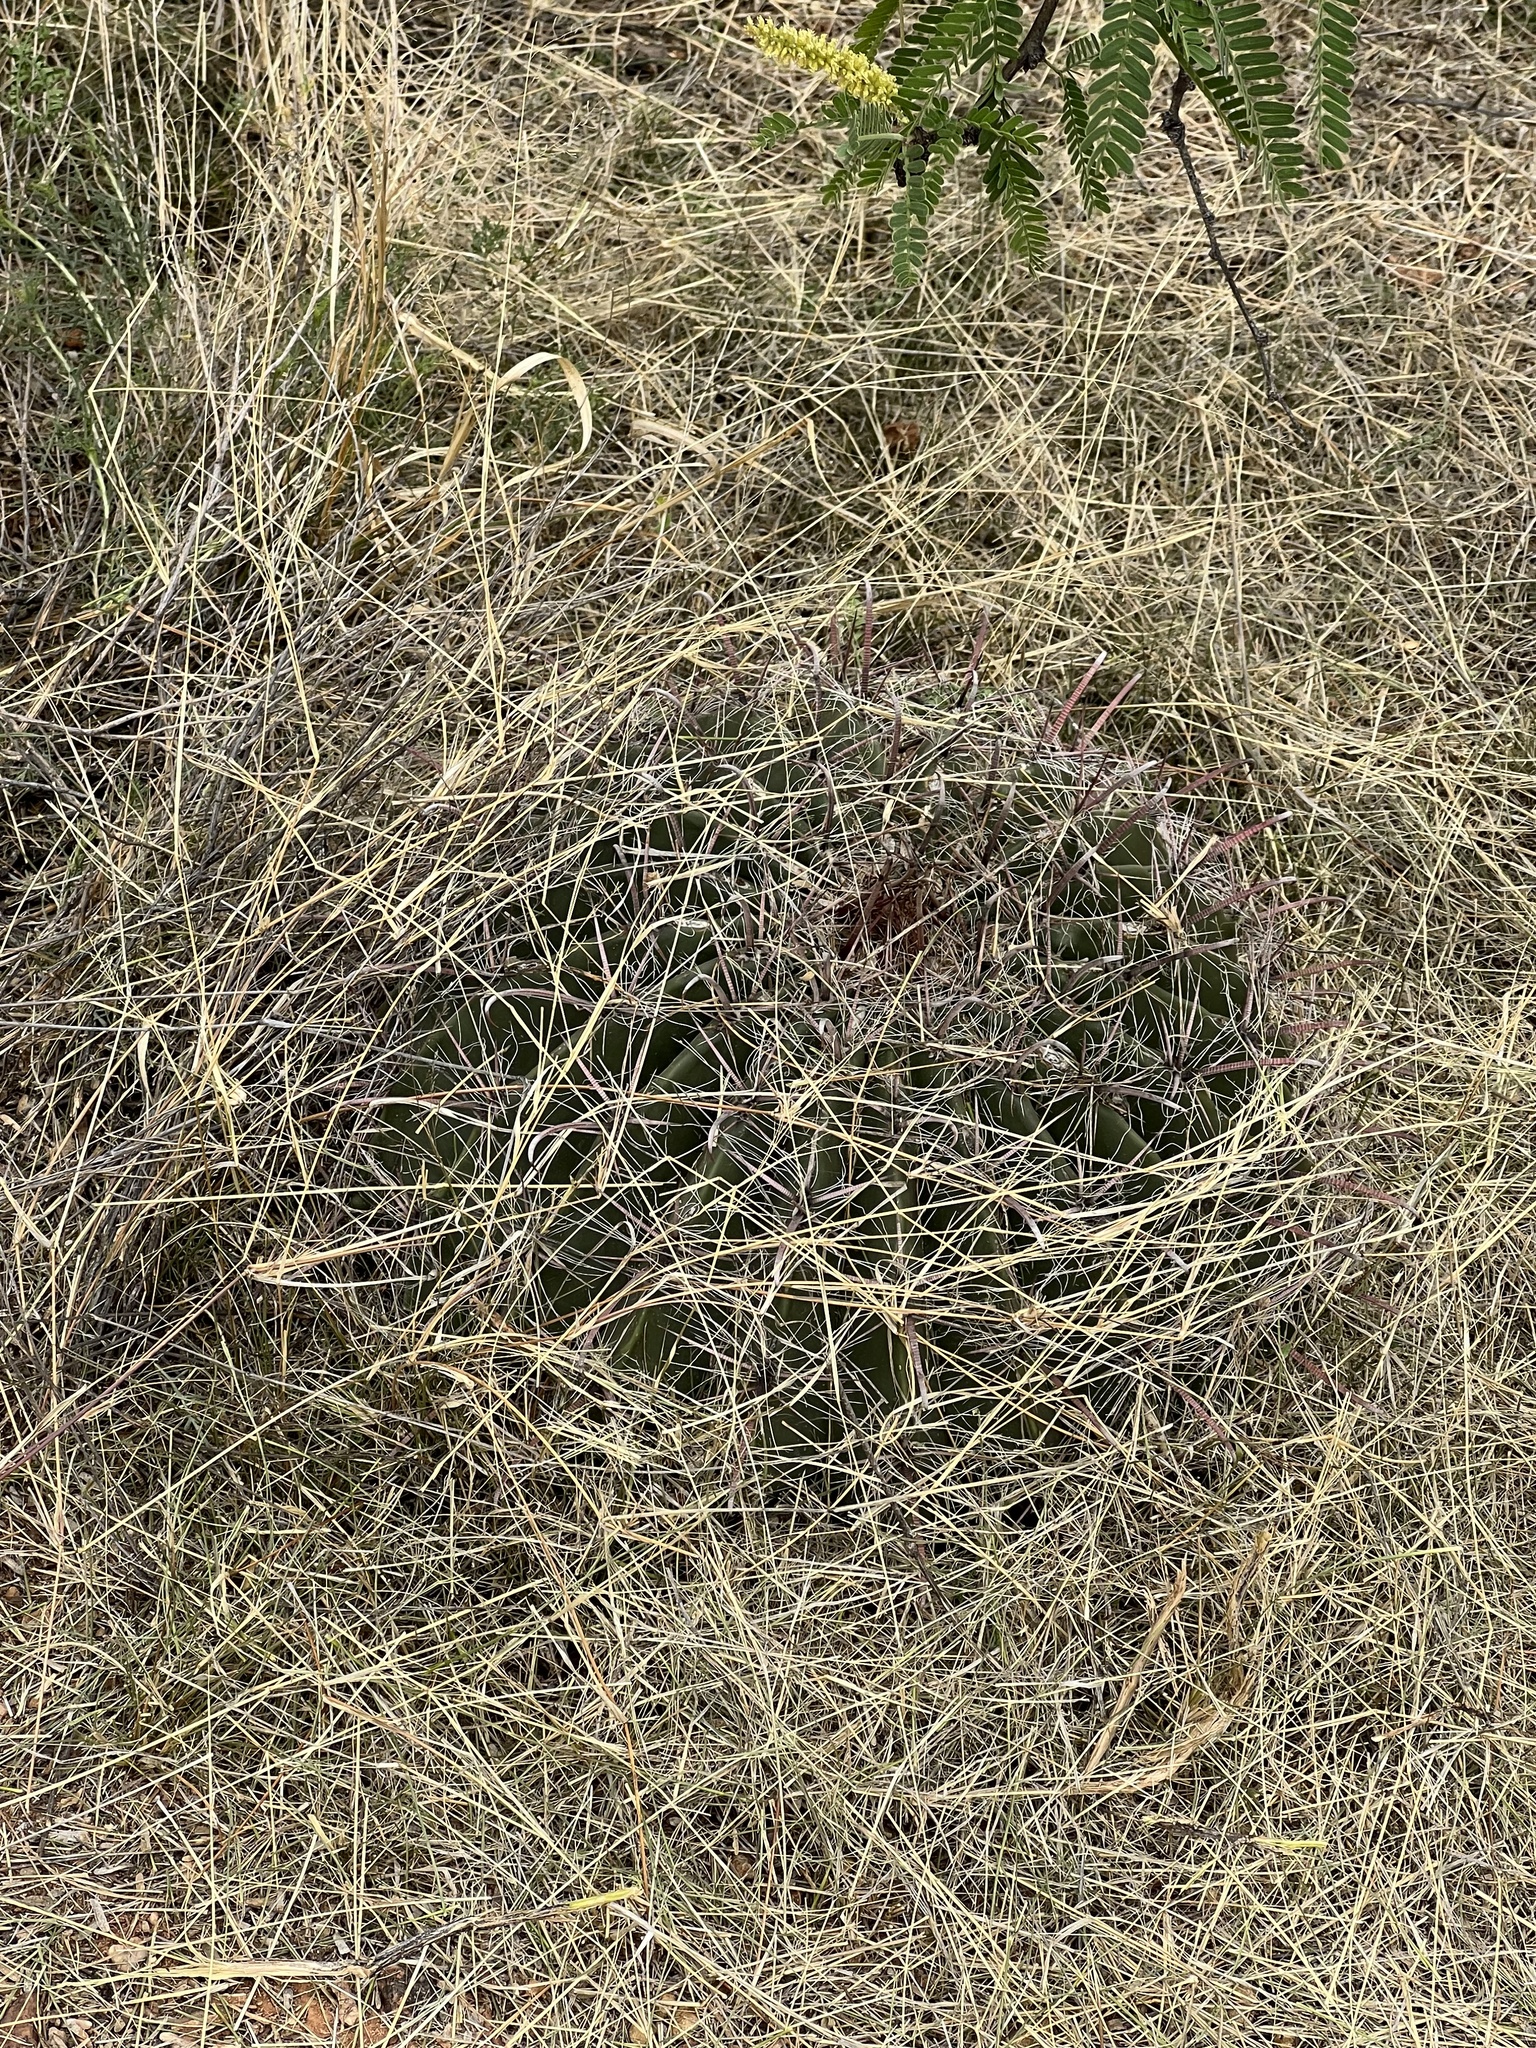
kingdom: Plantae
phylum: Tracheophyta
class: Magnoliopsida
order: Caryophyllales
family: Cactaceae
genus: Ferocactus
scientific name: Ferocactus wislizeni
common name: Candy barrel cactus
